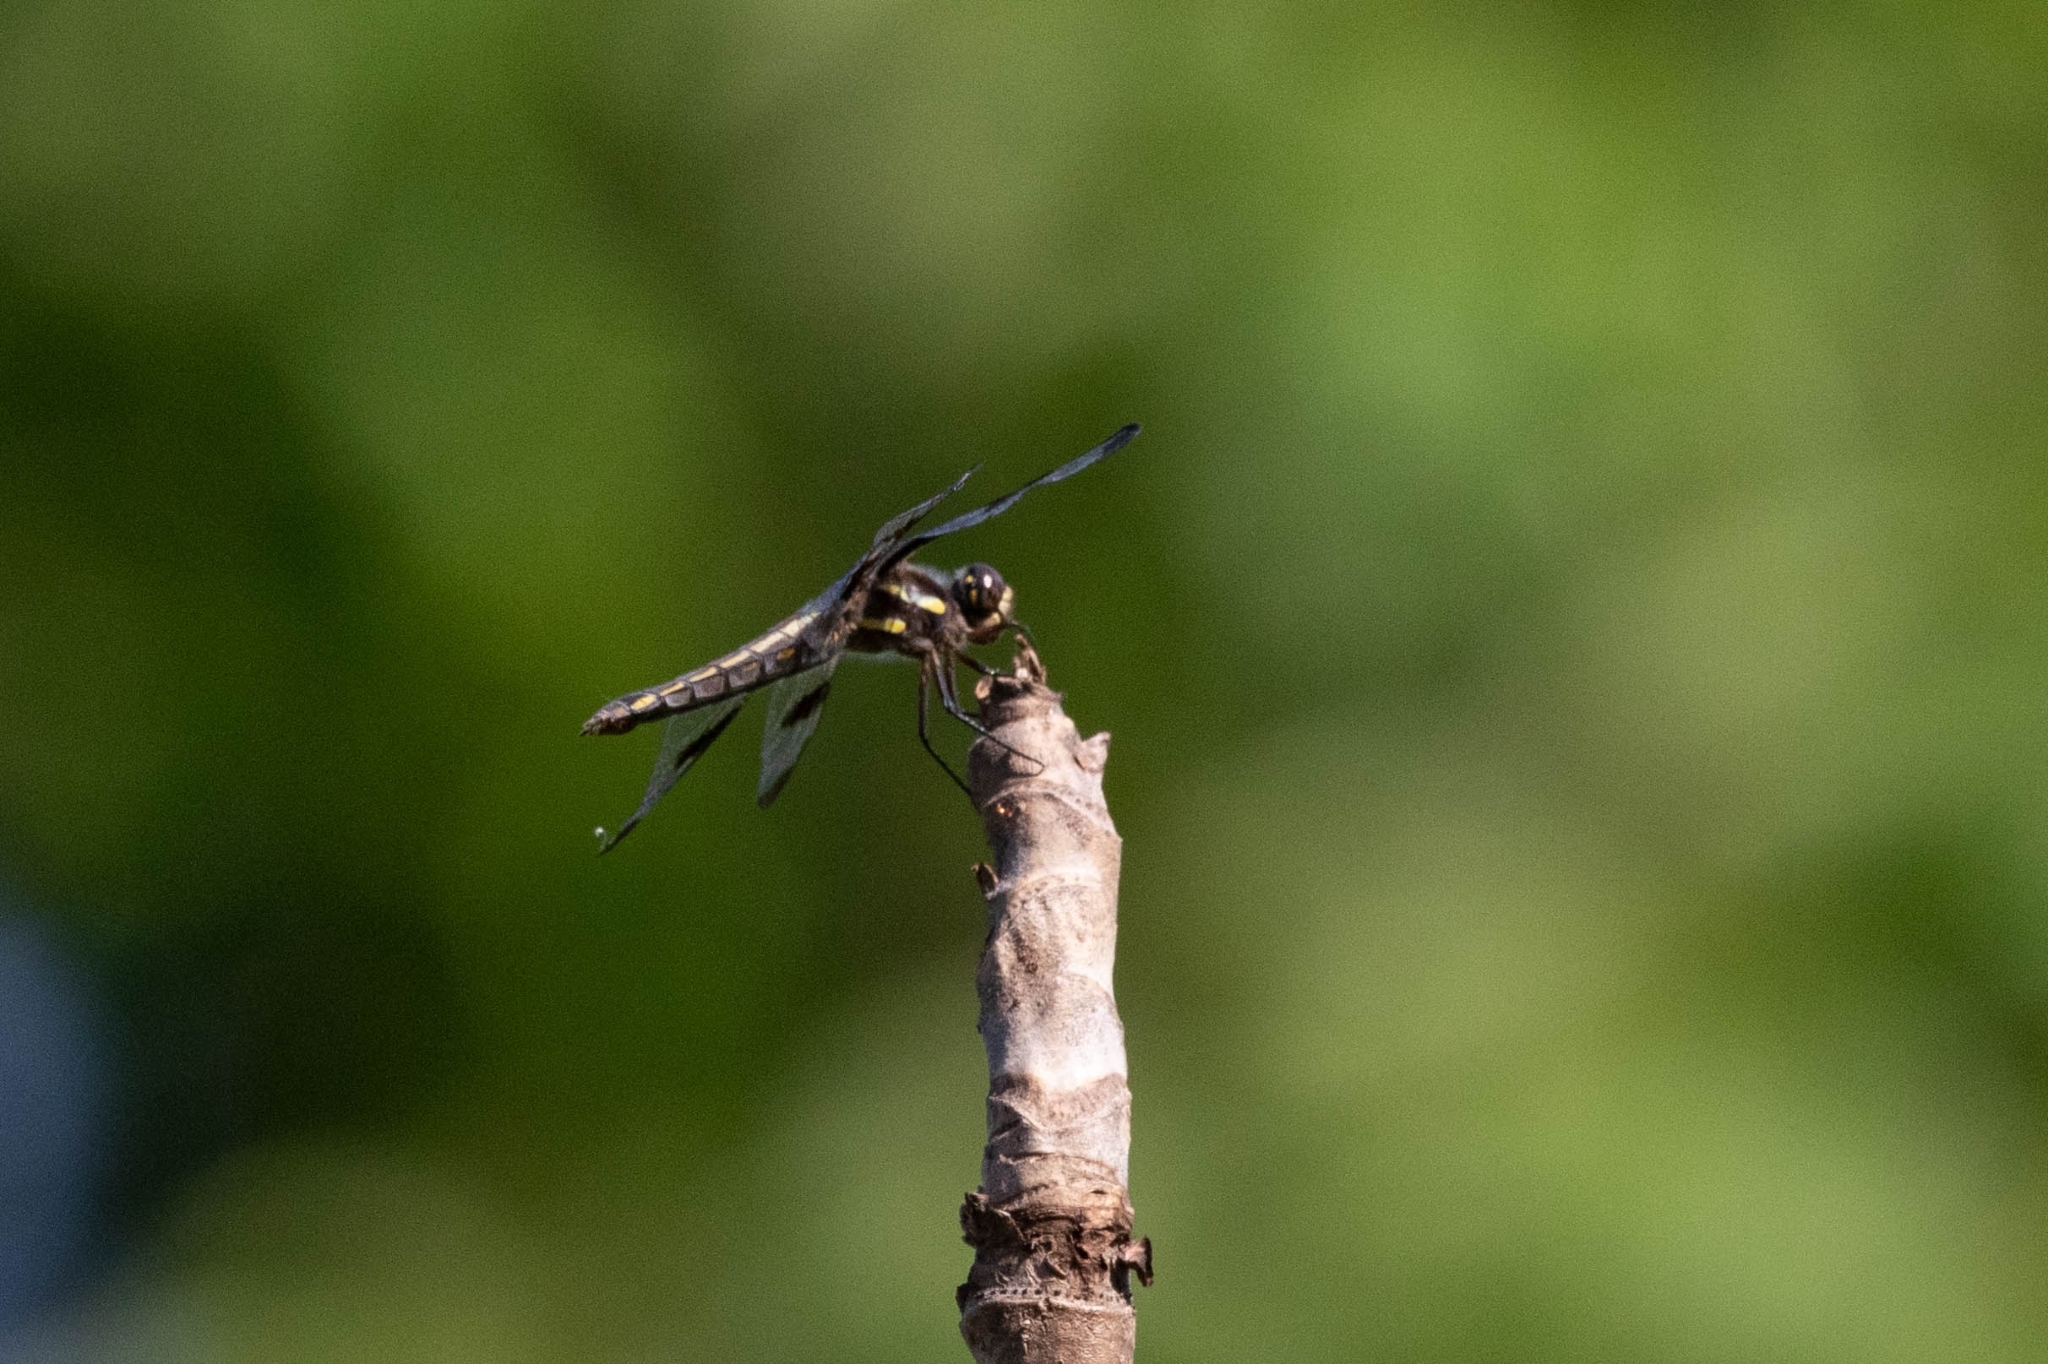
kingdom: Animalia
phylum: Arthropoda
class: Insecta
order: Odonata
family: Libellulidae
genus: Libellula
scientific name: Libellula pulchella
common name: Twelve-spotted skimmer
